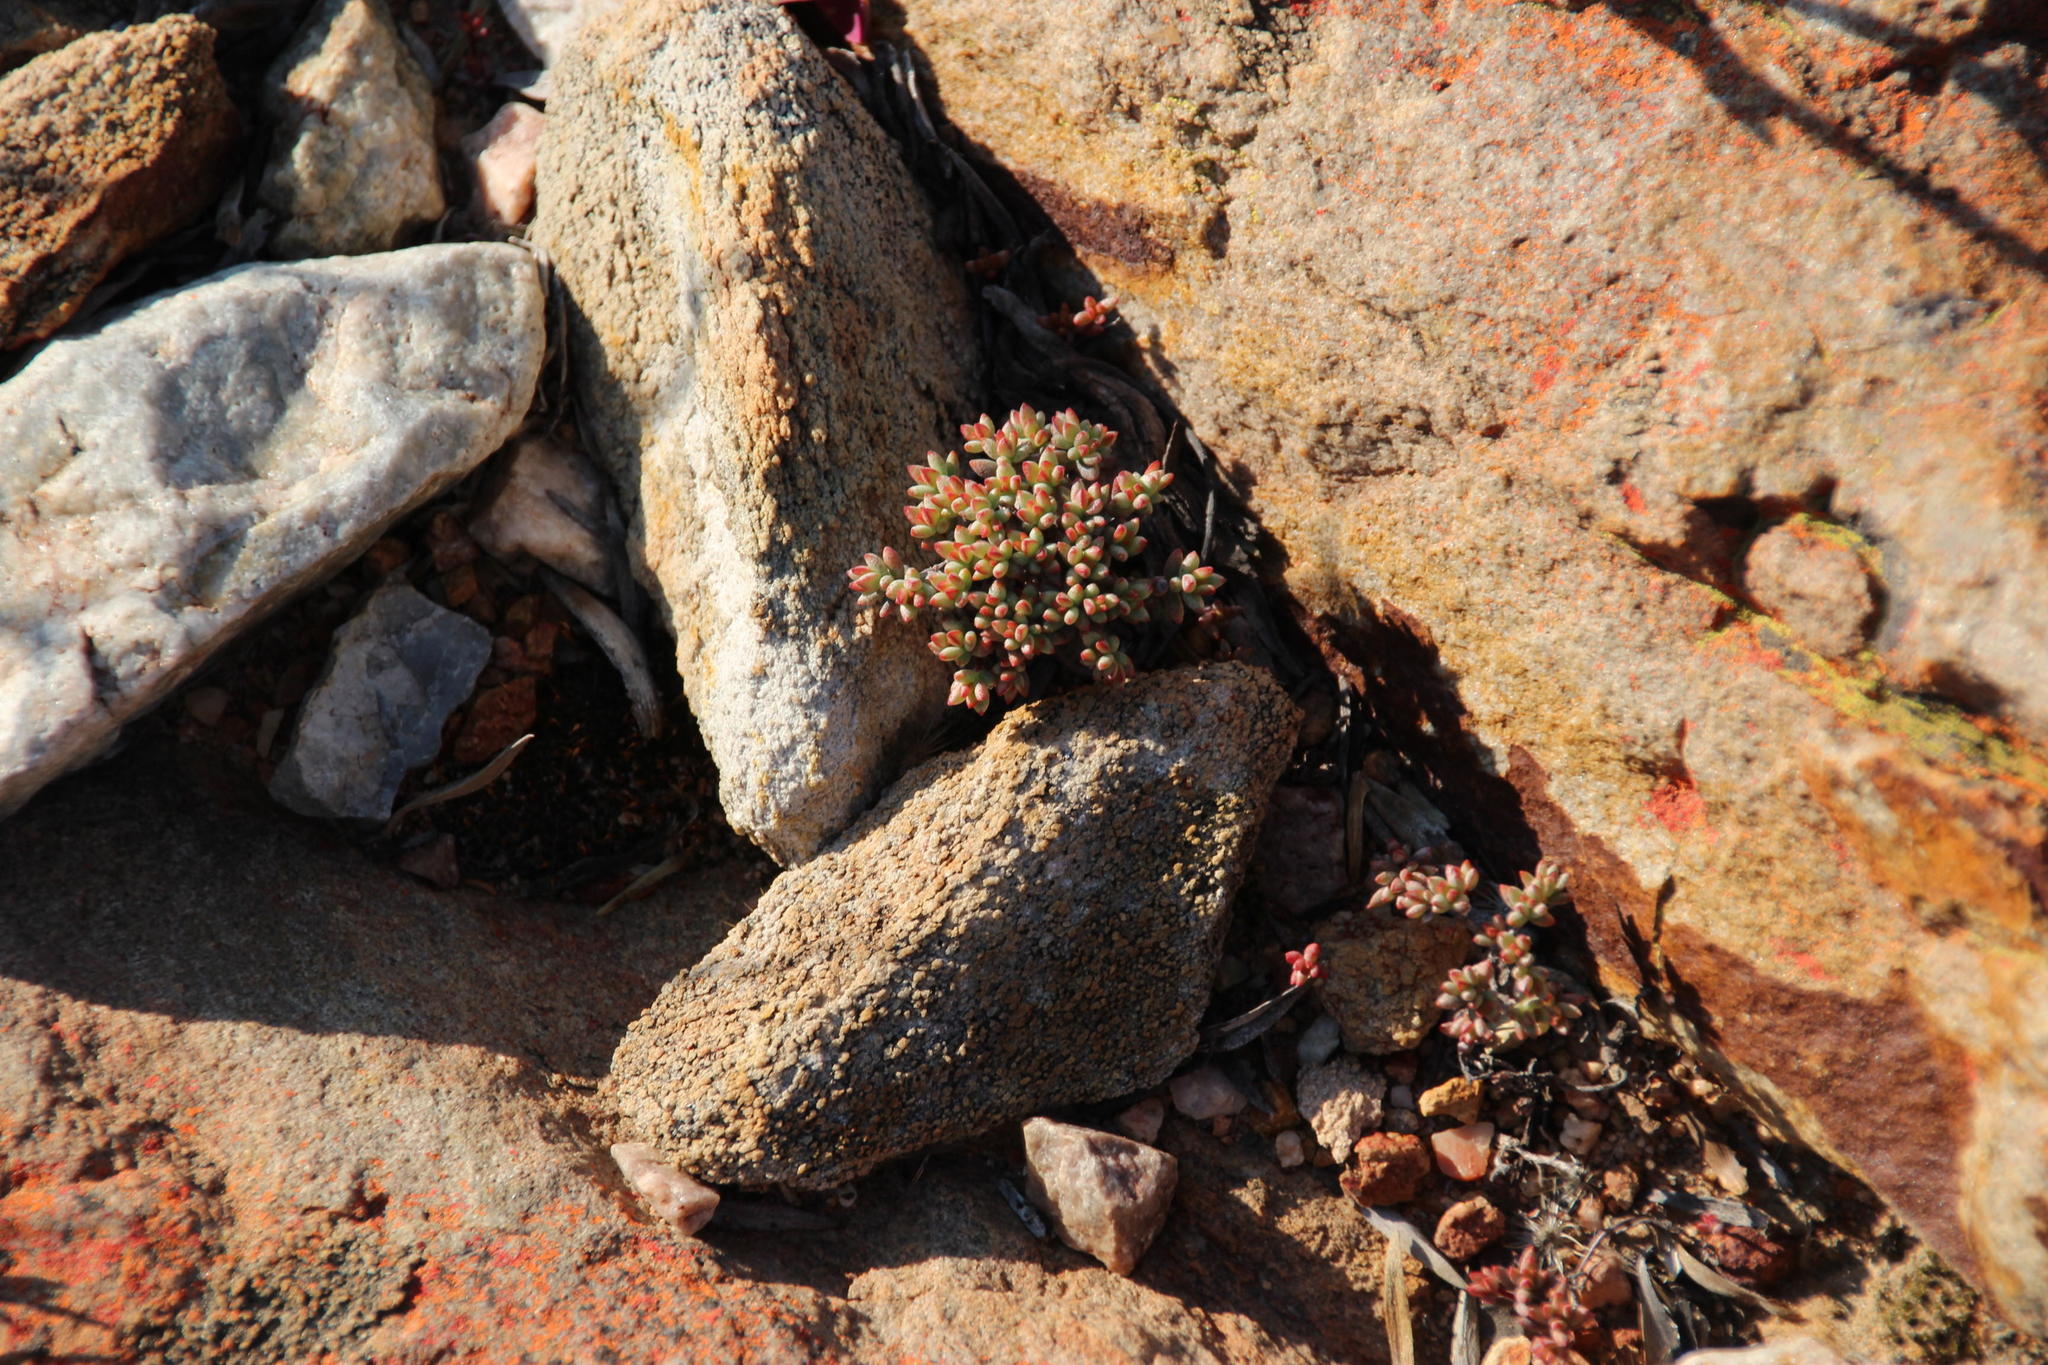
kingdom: Plantae
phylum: Tracheophyta
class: Magnoliopsida
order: Saxifragales
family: Crassulaceae
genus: Crassula
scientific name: Crassula biplanata
